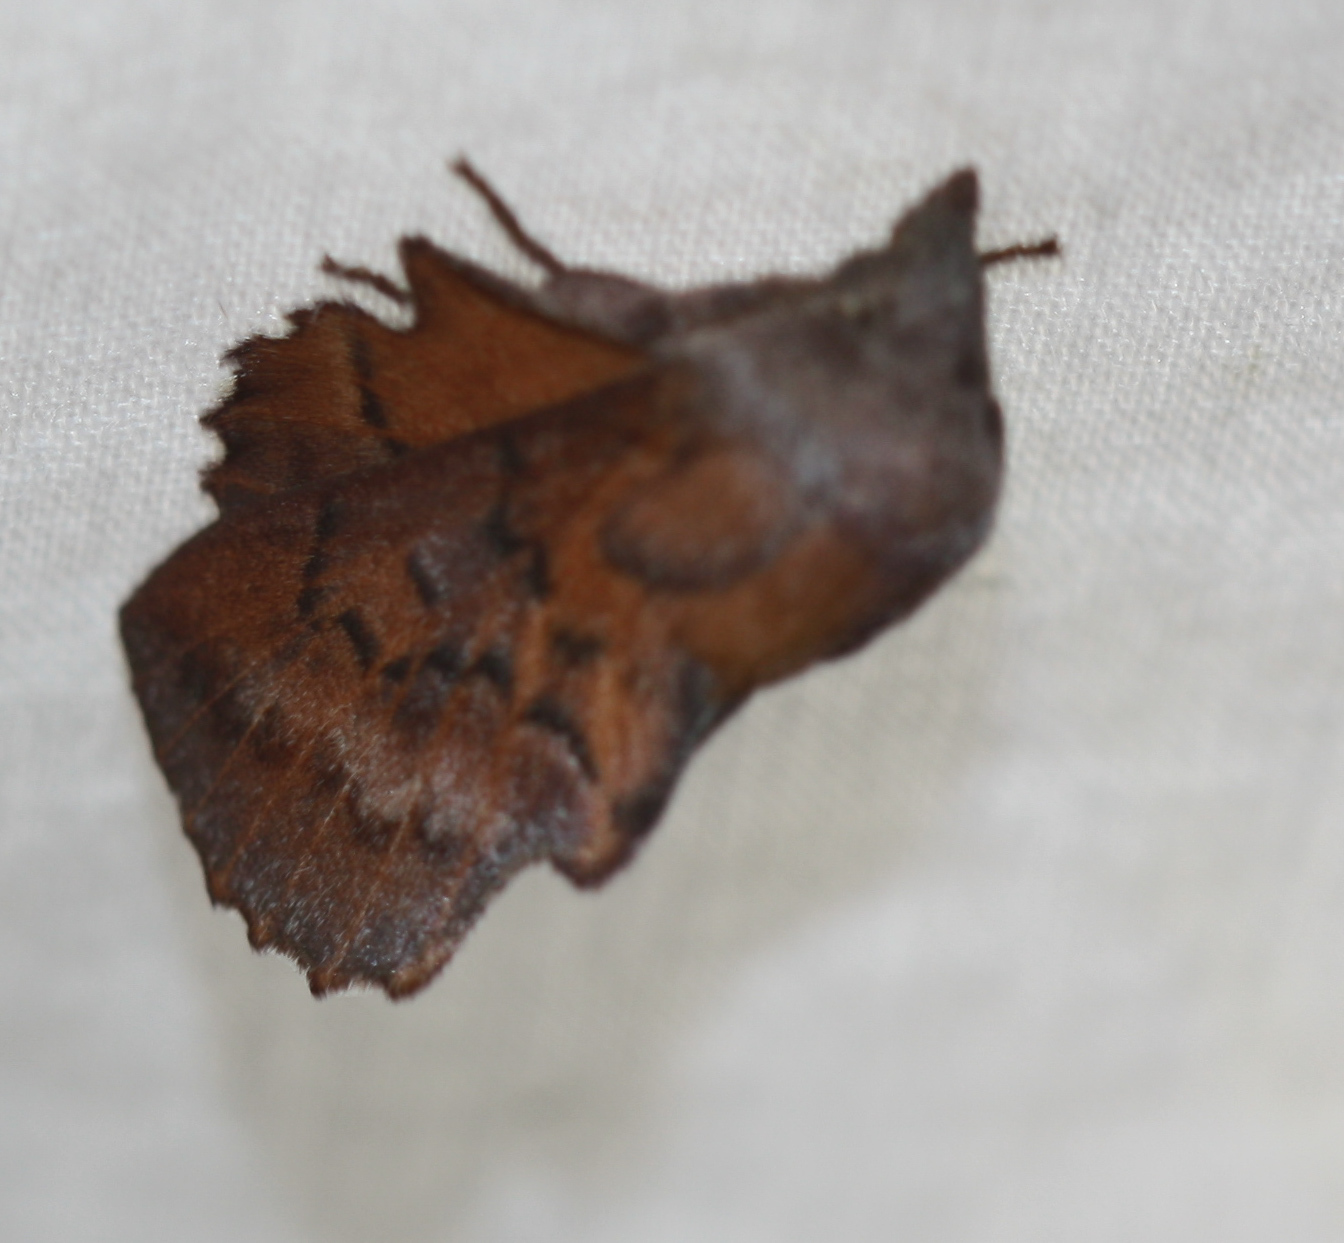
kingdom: Animalia
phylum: Arthropoda
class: Insecta
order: Lepidoptera
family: Lasiocampidae
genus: Phyllodesma
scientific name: Phyllodesma americana
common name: American lappet moth
